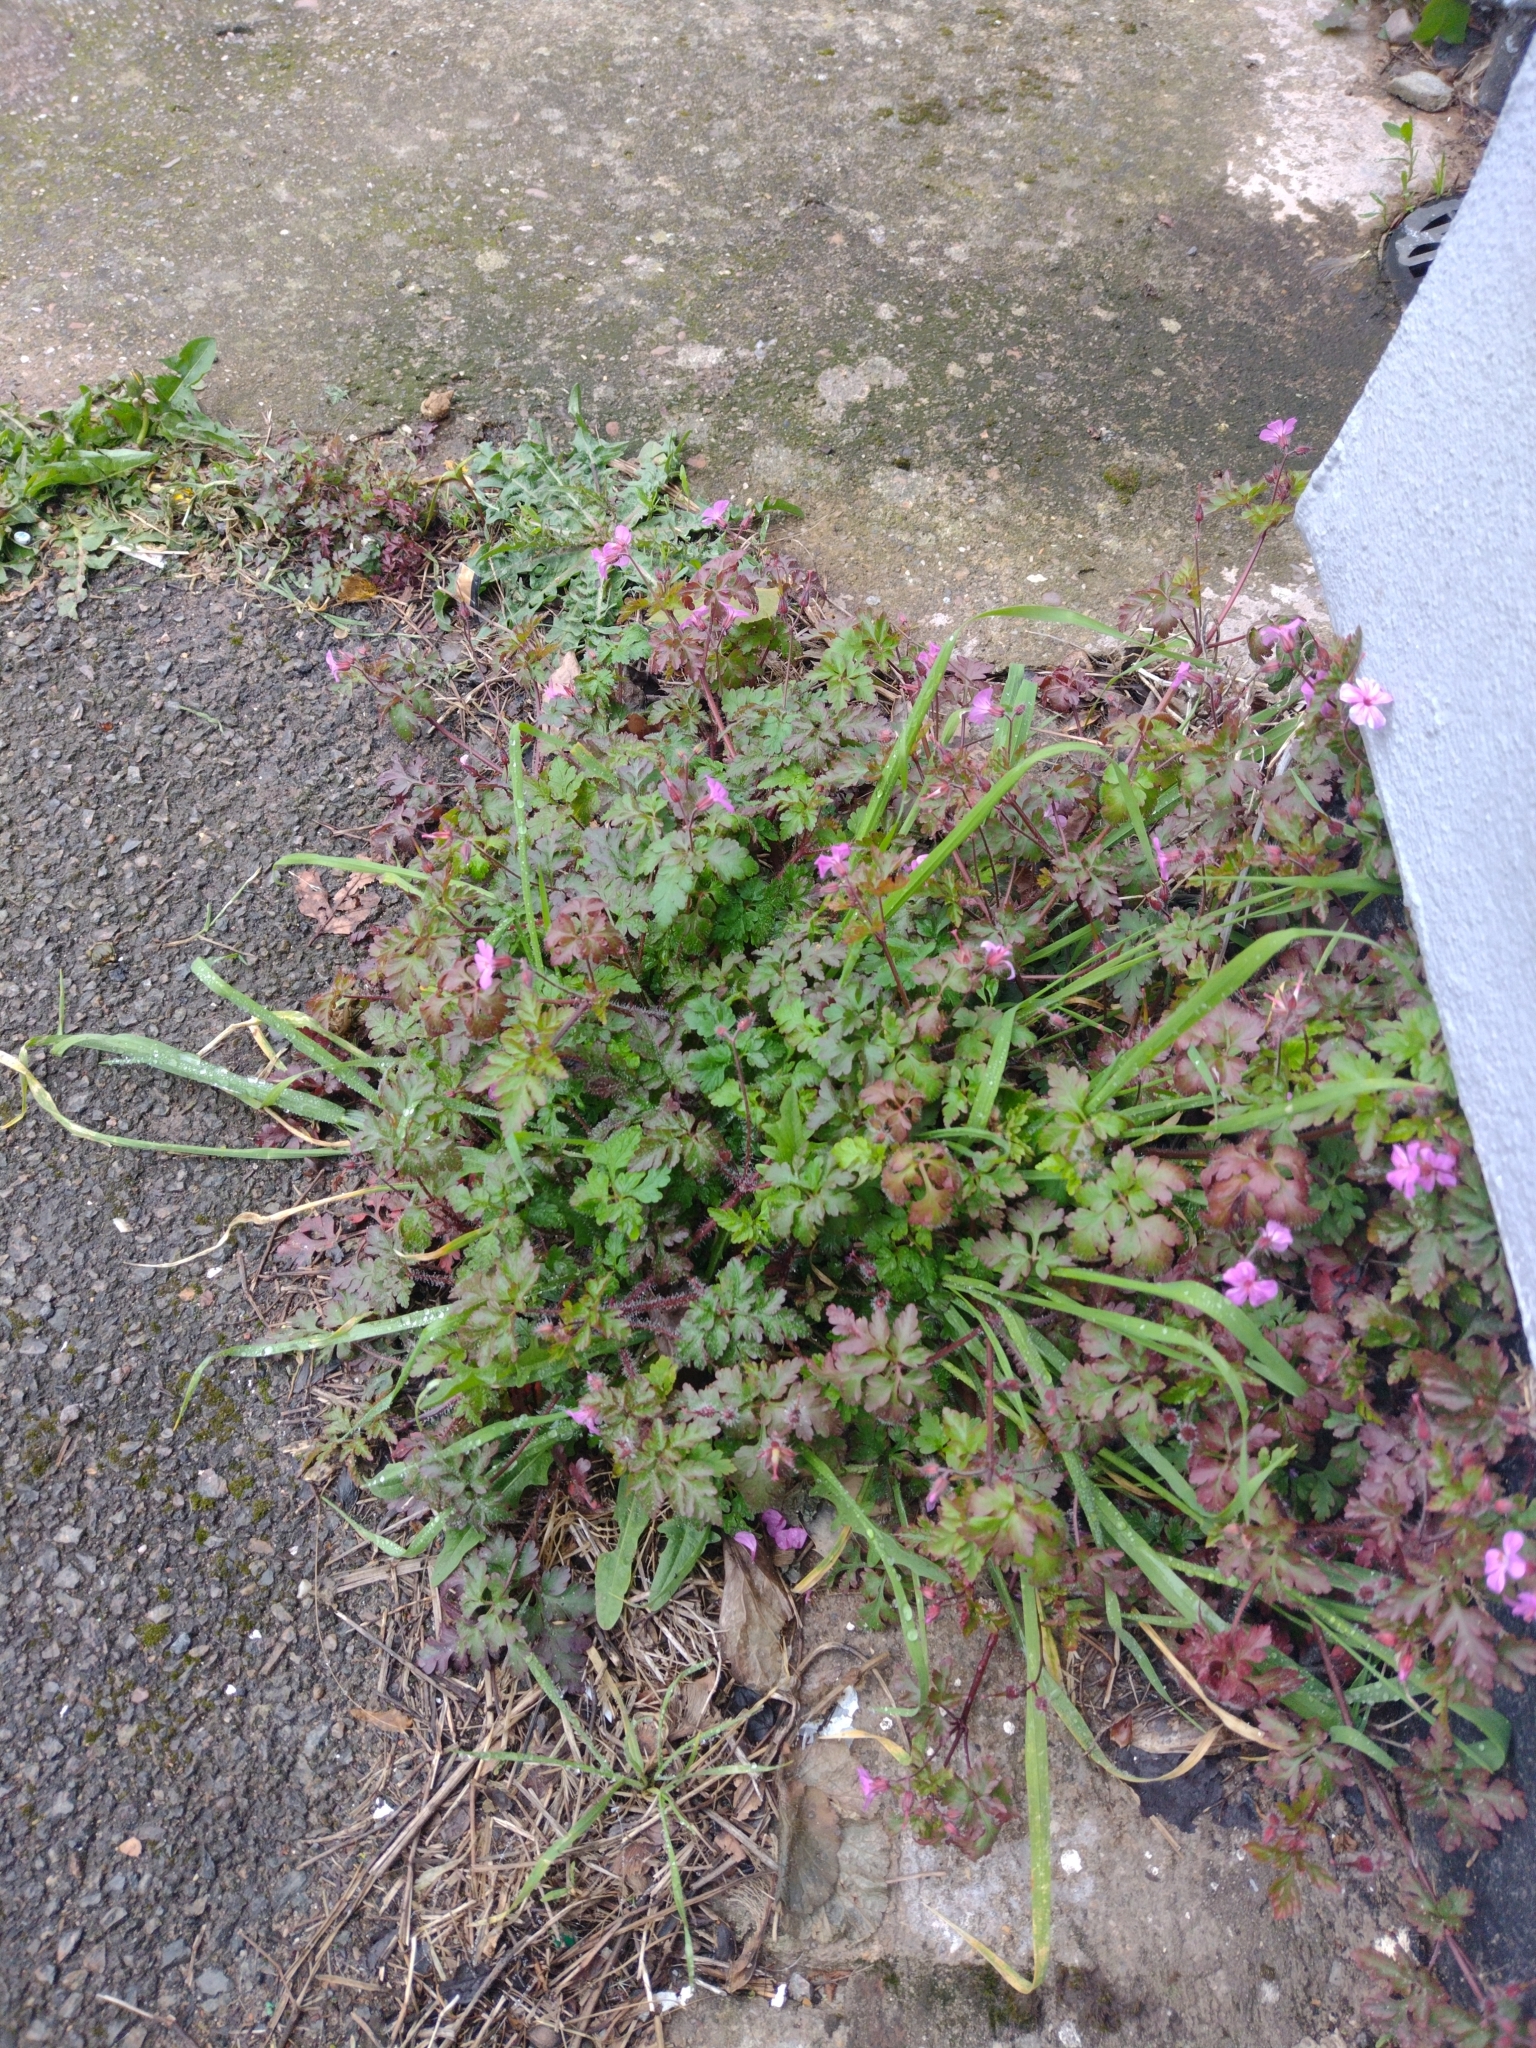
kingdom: Plantae
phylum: Tracheophyta
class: Magnoliopsida
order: Geraniales
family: Geraniaceae
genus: Geranium
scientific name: Geranium robertianum
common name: Herb-robert
